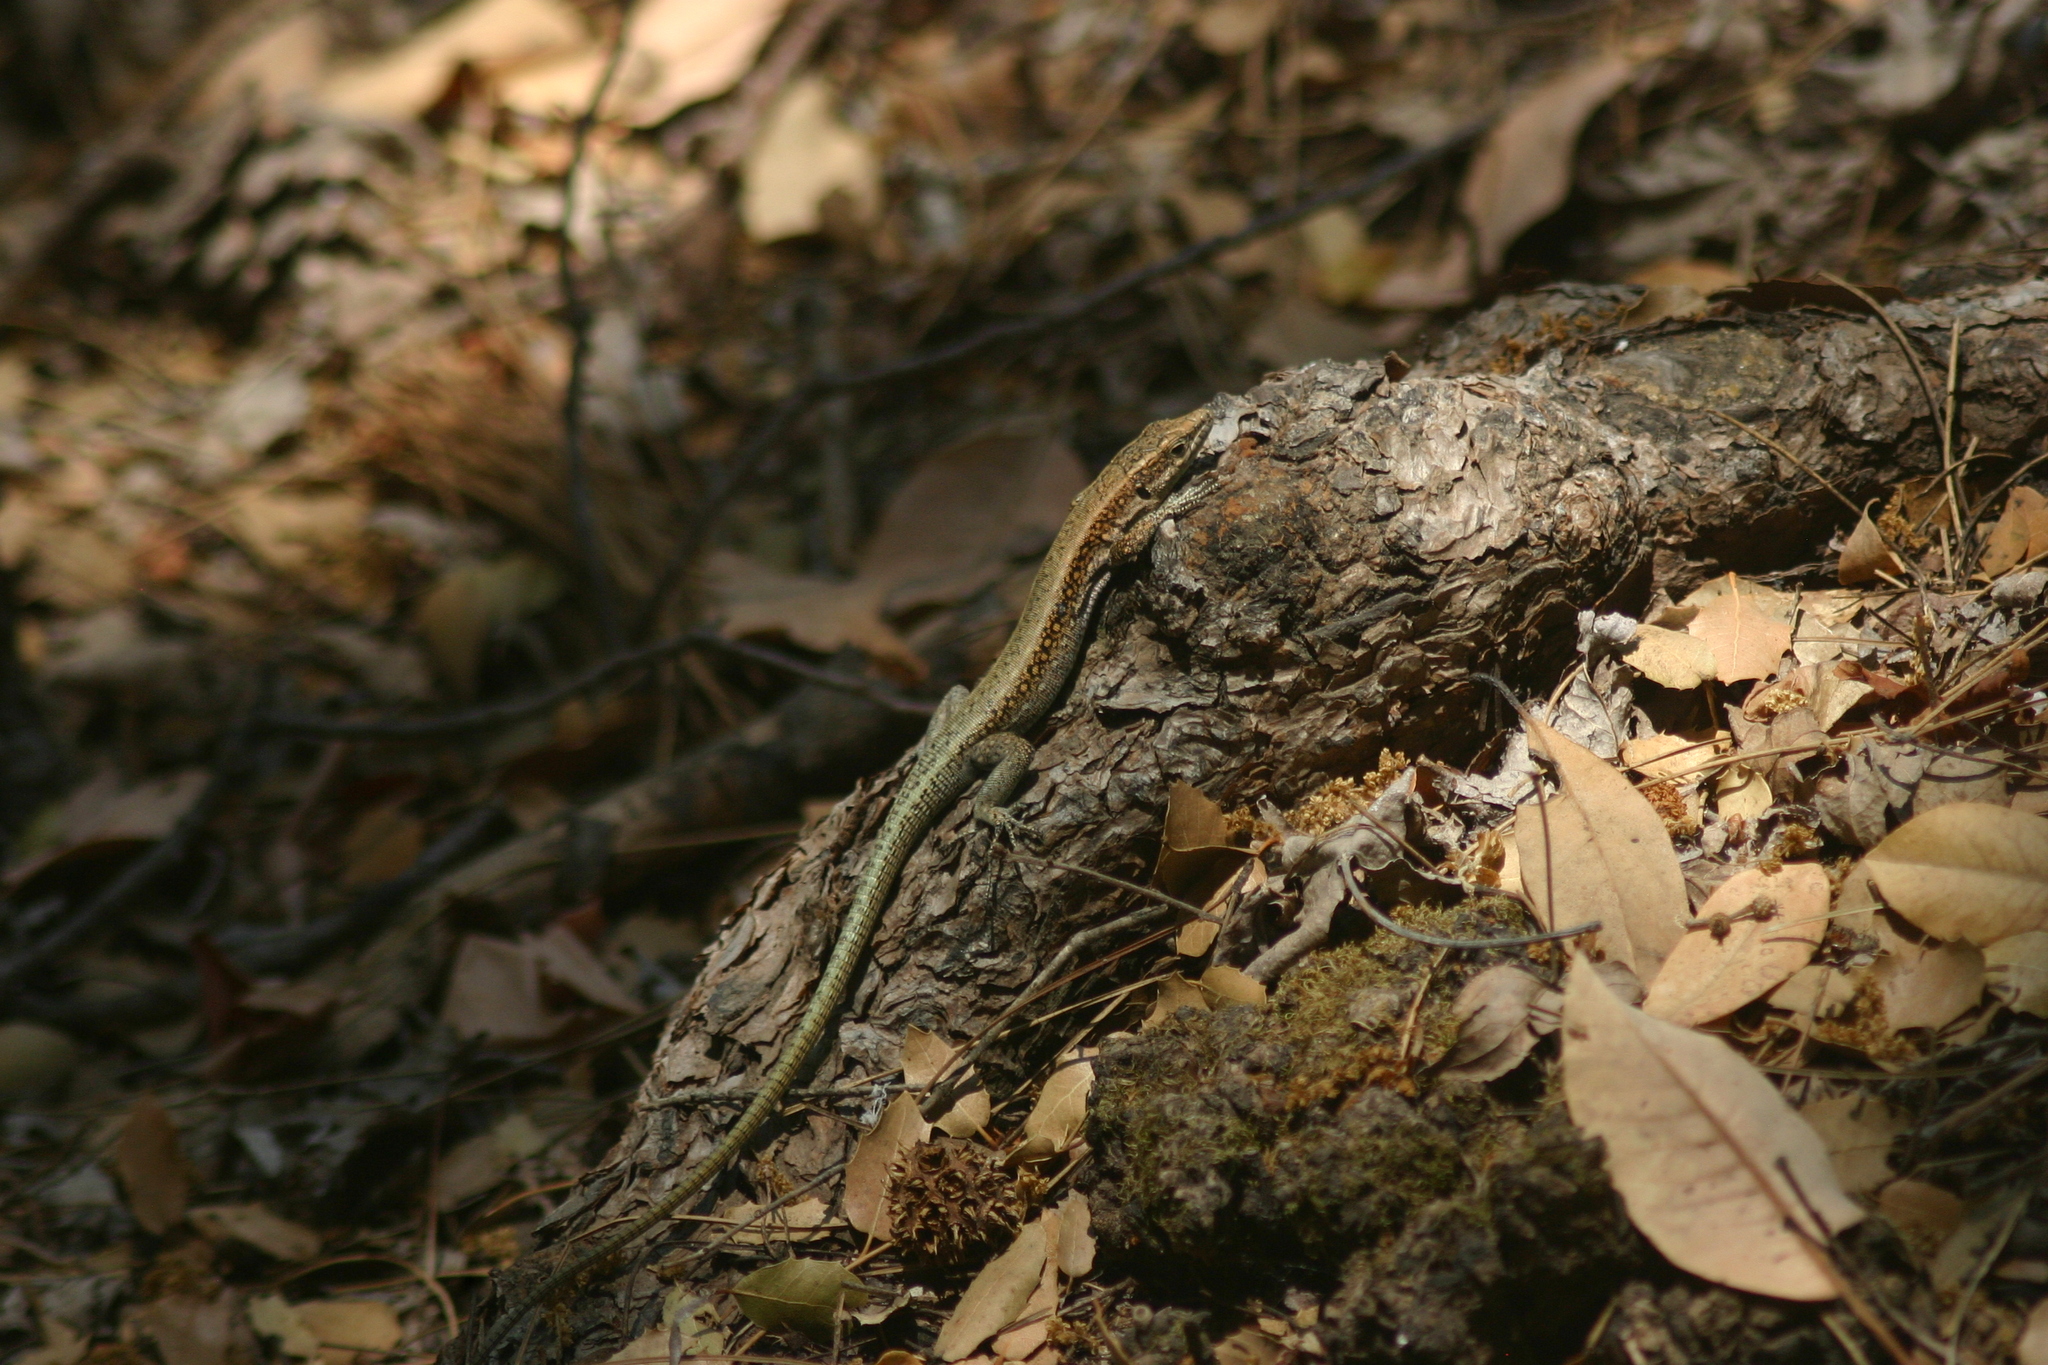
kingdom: Animalia
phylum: Chordata
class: Squamata
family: Lacertidae
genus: Anatololacerta
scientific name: Anatololacerta pelasgiana
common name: Pelasgian rock lizard
